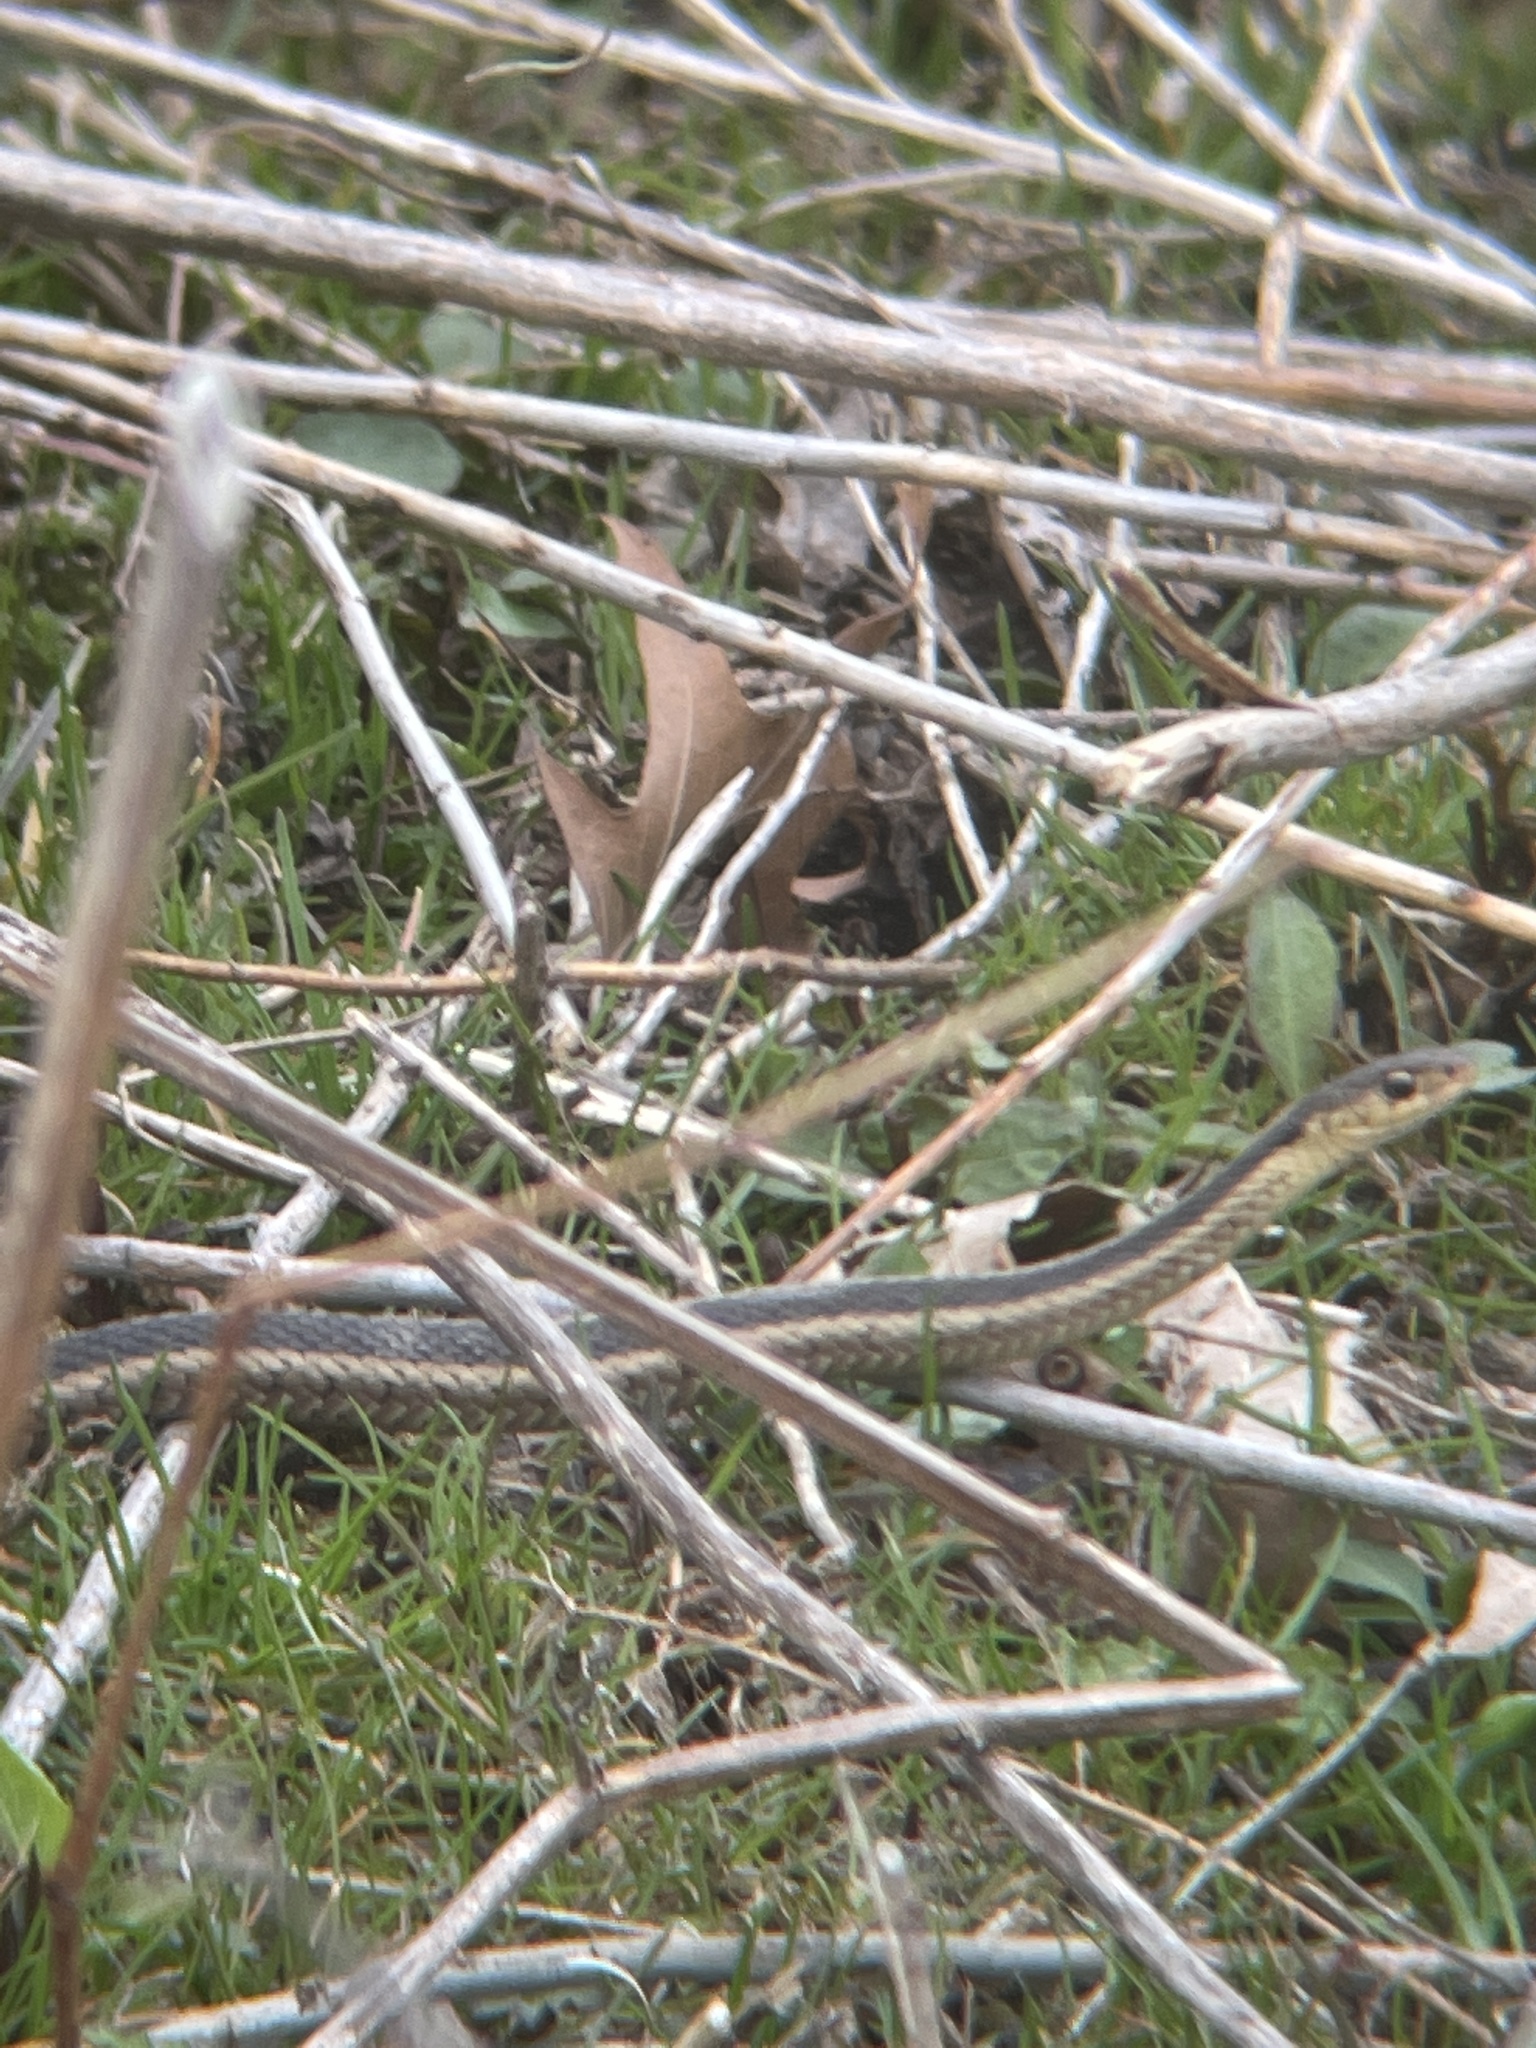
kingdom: Animalia
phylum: Chordata
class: Squamata
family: Colubridae
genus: Thamnophis
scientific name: Thamnophis sirtalis
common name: Common garter snake
